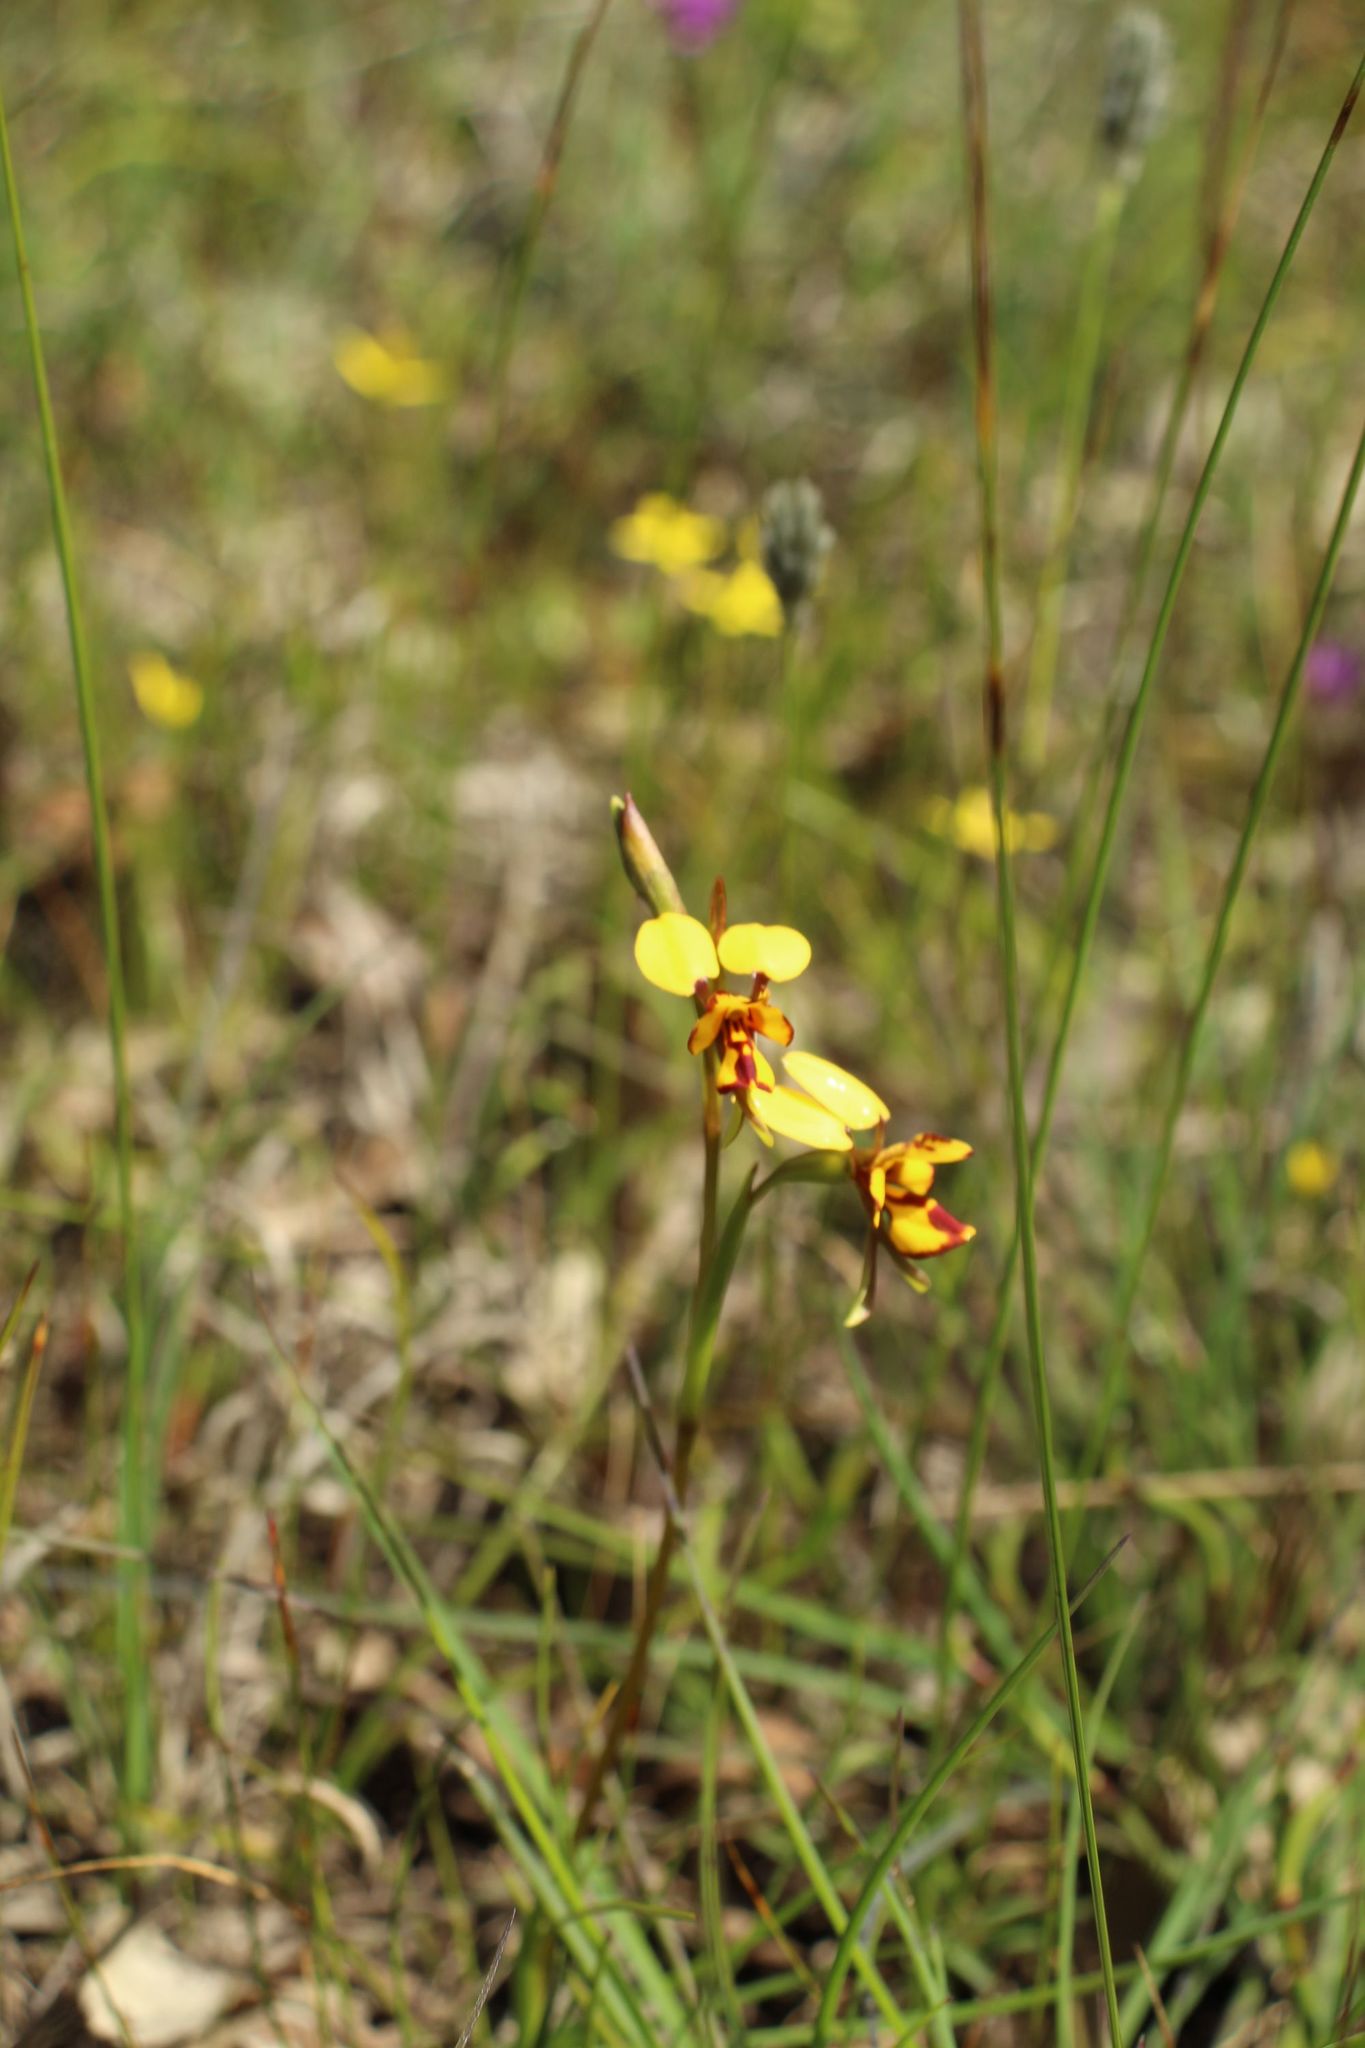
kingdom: Plantae
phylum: Tracheophyta
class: Liliopsida
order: Asparagales
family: Orchidaceae
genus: Diuris
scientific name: Diuris decrementum
